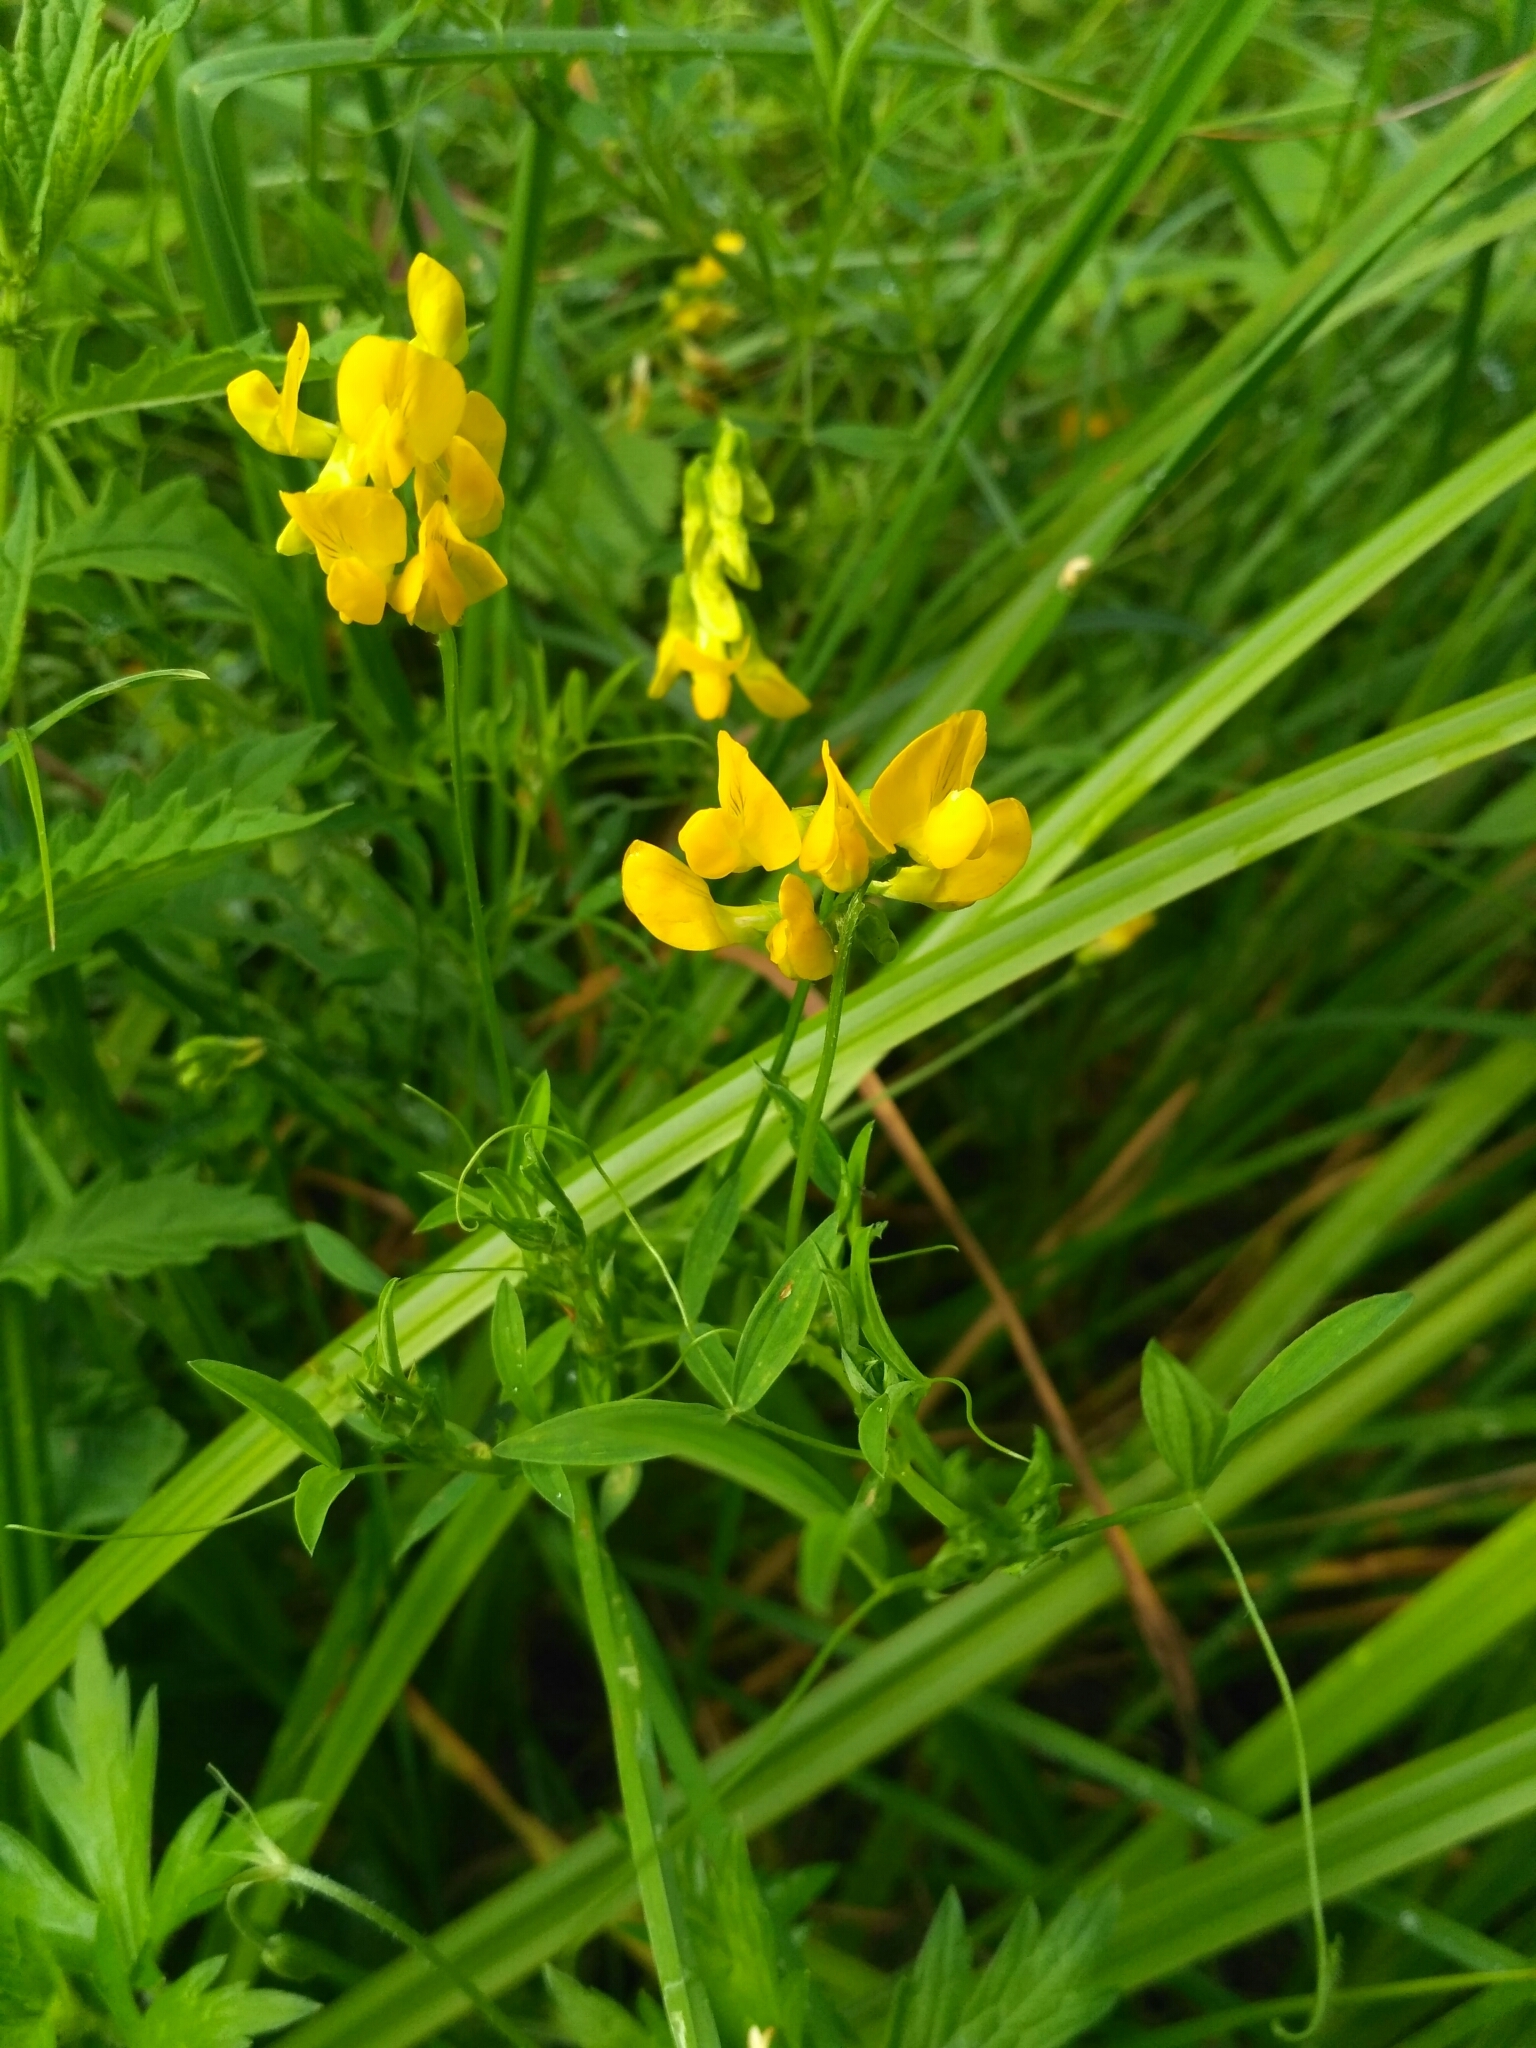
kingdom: Plantae
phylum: Tracheophyta
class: Magnoliopsida
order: Fabales
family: Fabaceae
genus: Lathyrus
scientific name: Lathyrus pratensis
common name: Meadow vetchling
